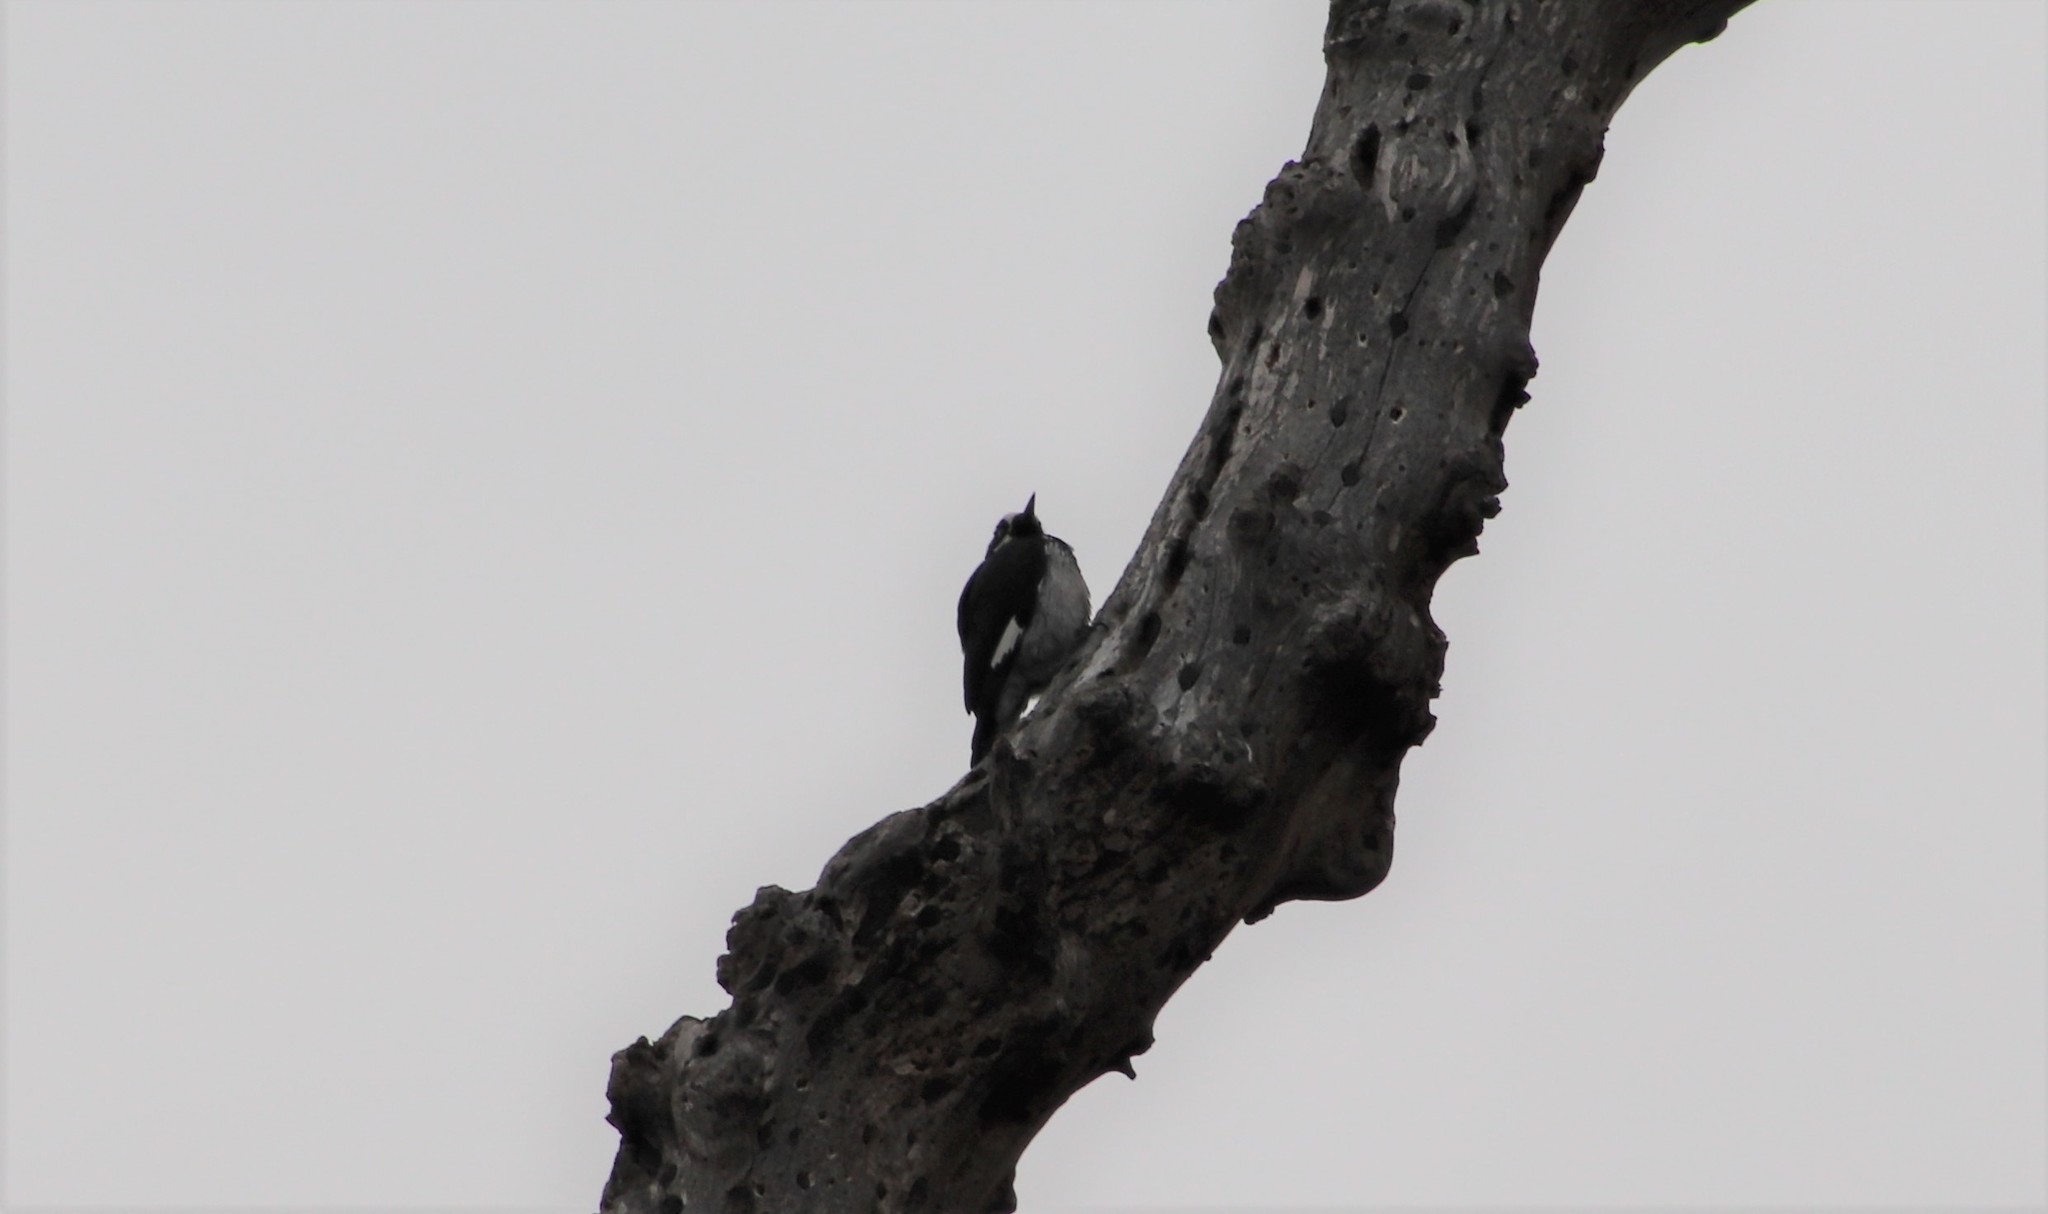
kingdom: Animalia
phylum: Chordata
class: Aves
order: Piciformes
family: Picidae
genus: Melanerpes
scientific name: Melanerpes formicivorus
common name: Acorn woodpecker
